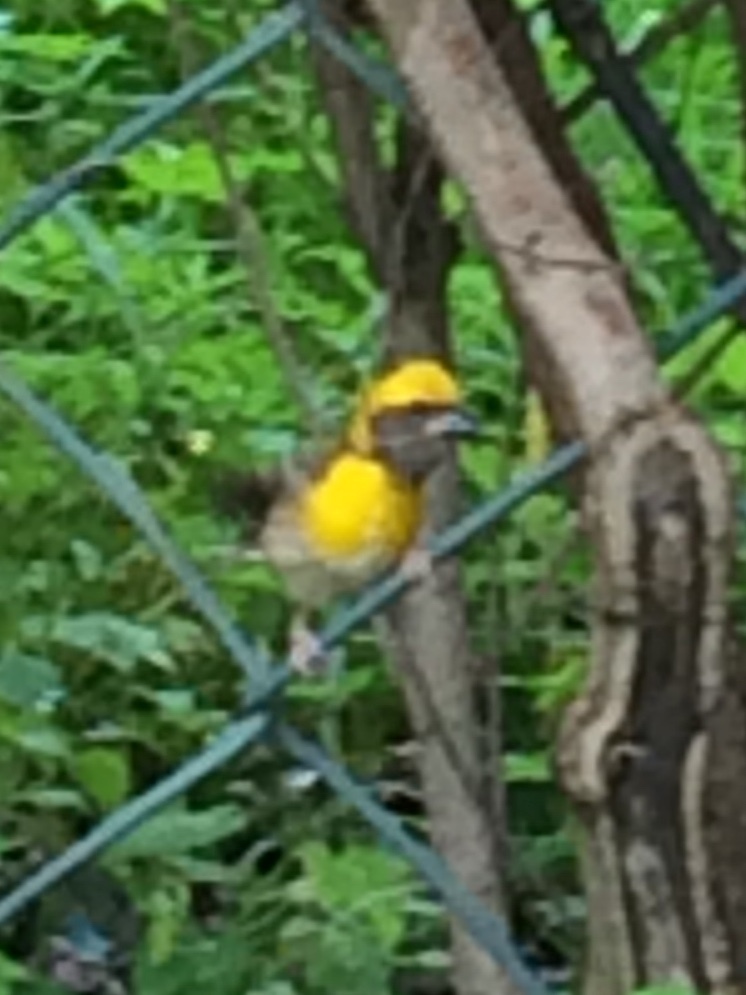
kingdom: Animalia
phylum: Chordata
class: Aves
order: Passeriformes
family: Ploceidae
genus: Ploceus
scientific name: Ploceus philippinus
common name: Baya weaver
